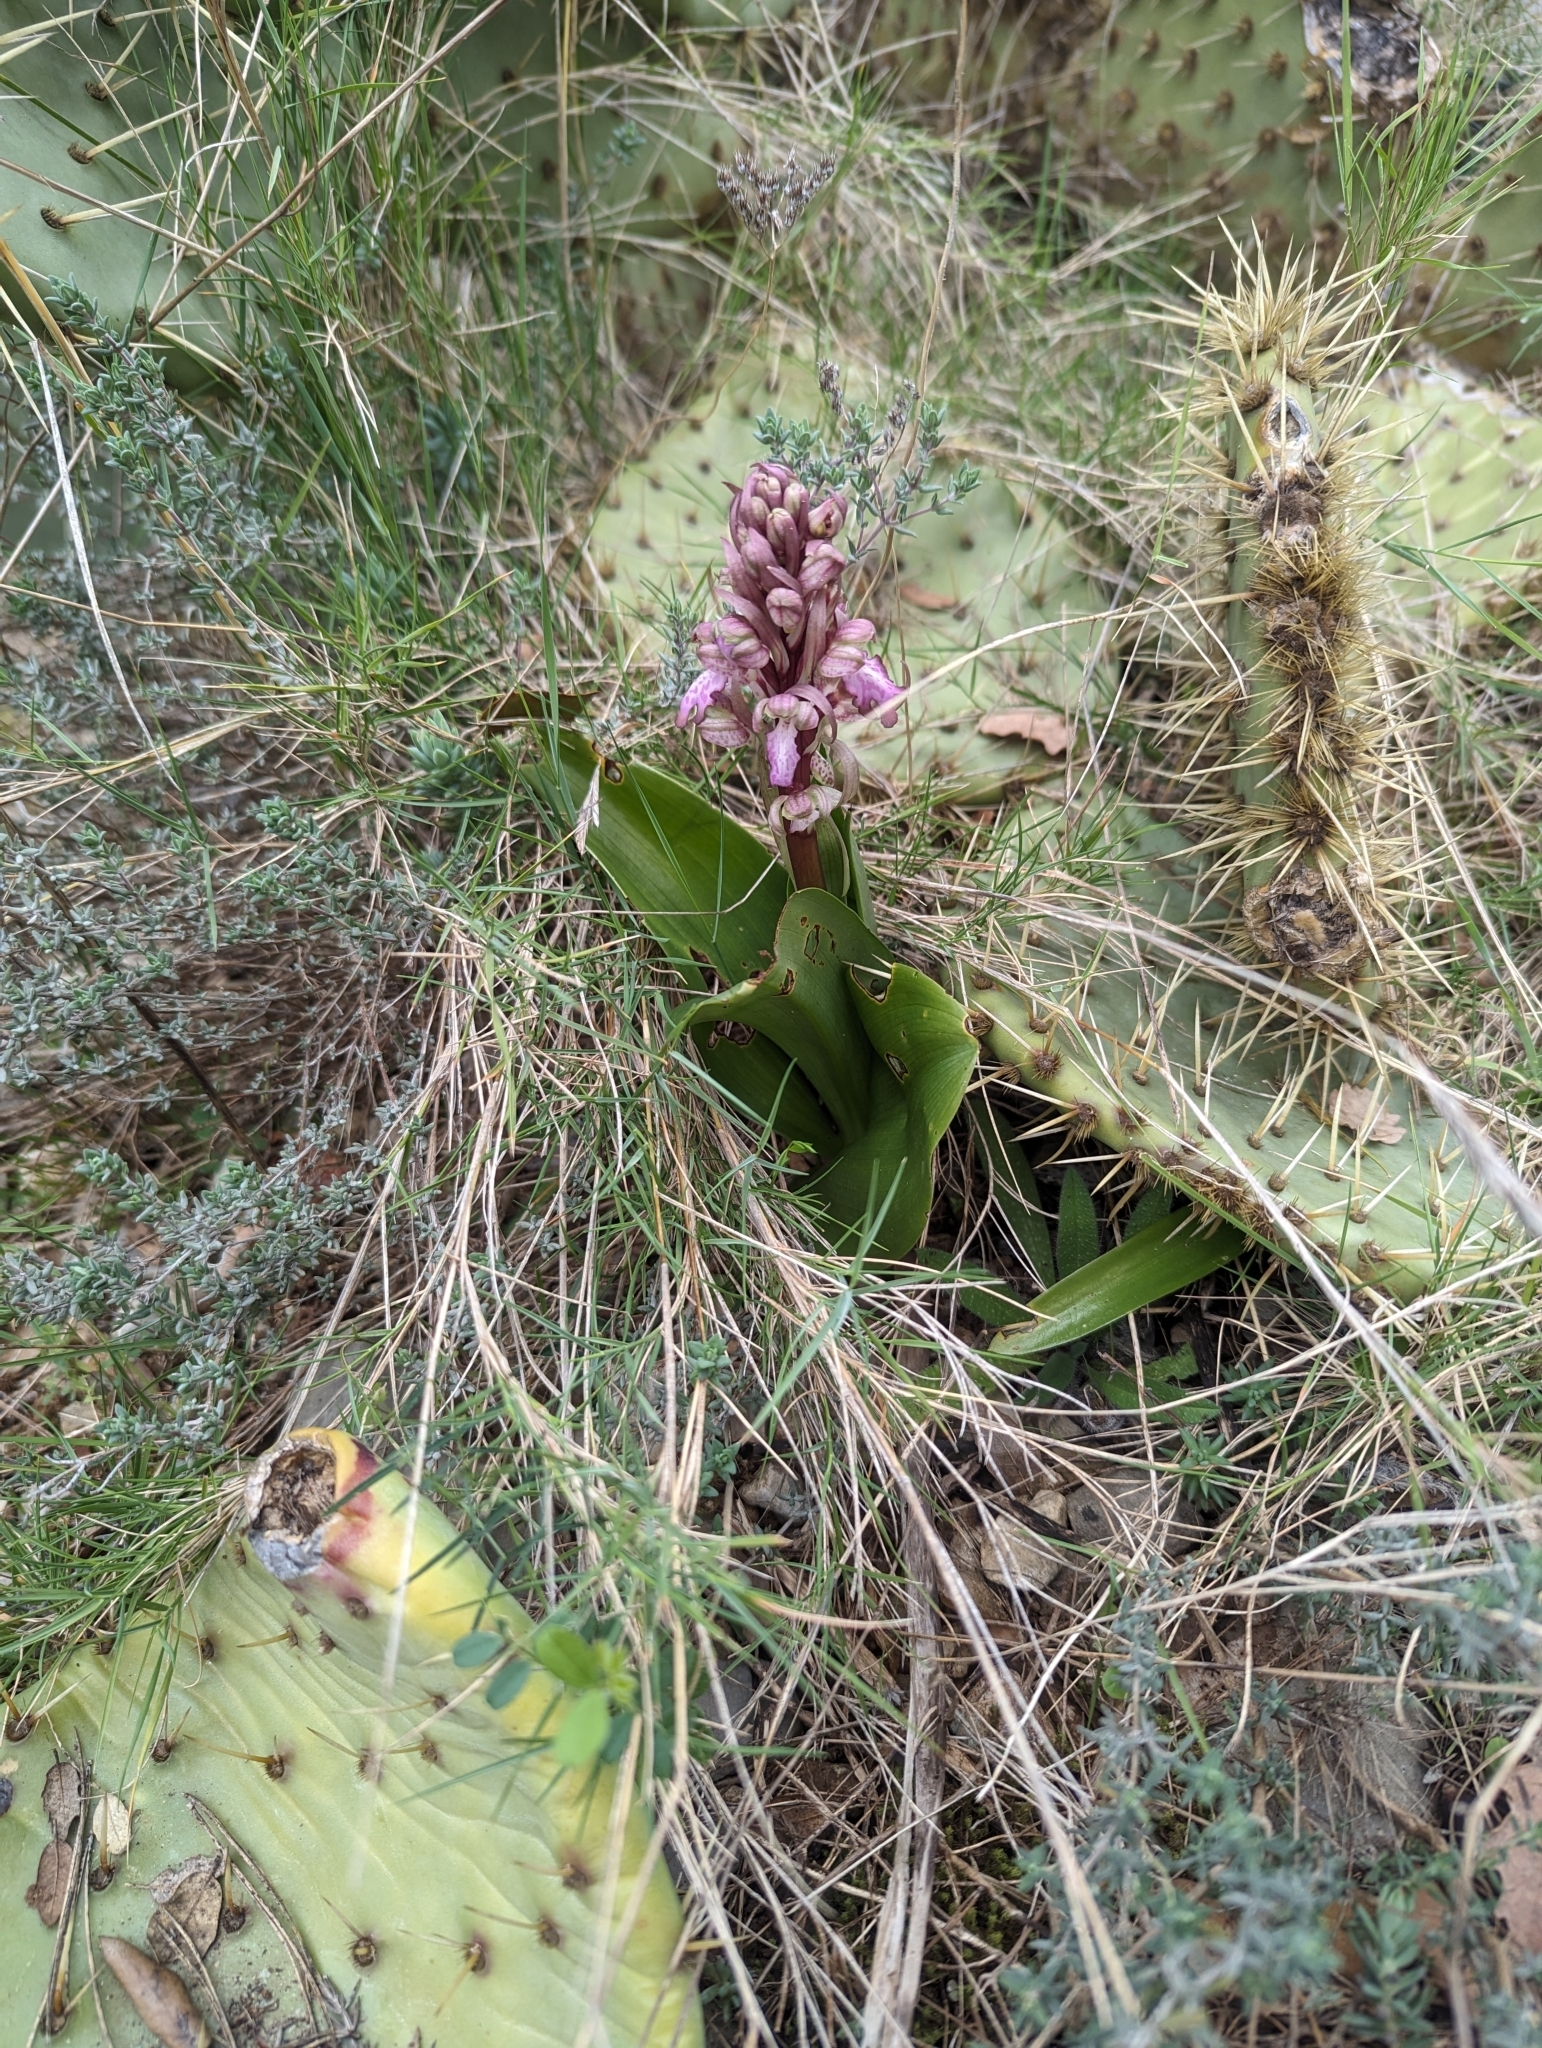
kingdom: Plantae
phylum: Tracheophyta
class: Liliopsida
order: Asparagales
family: Orchidaceae
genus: Himantoglossum
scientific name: Himantoglossum robertianum
